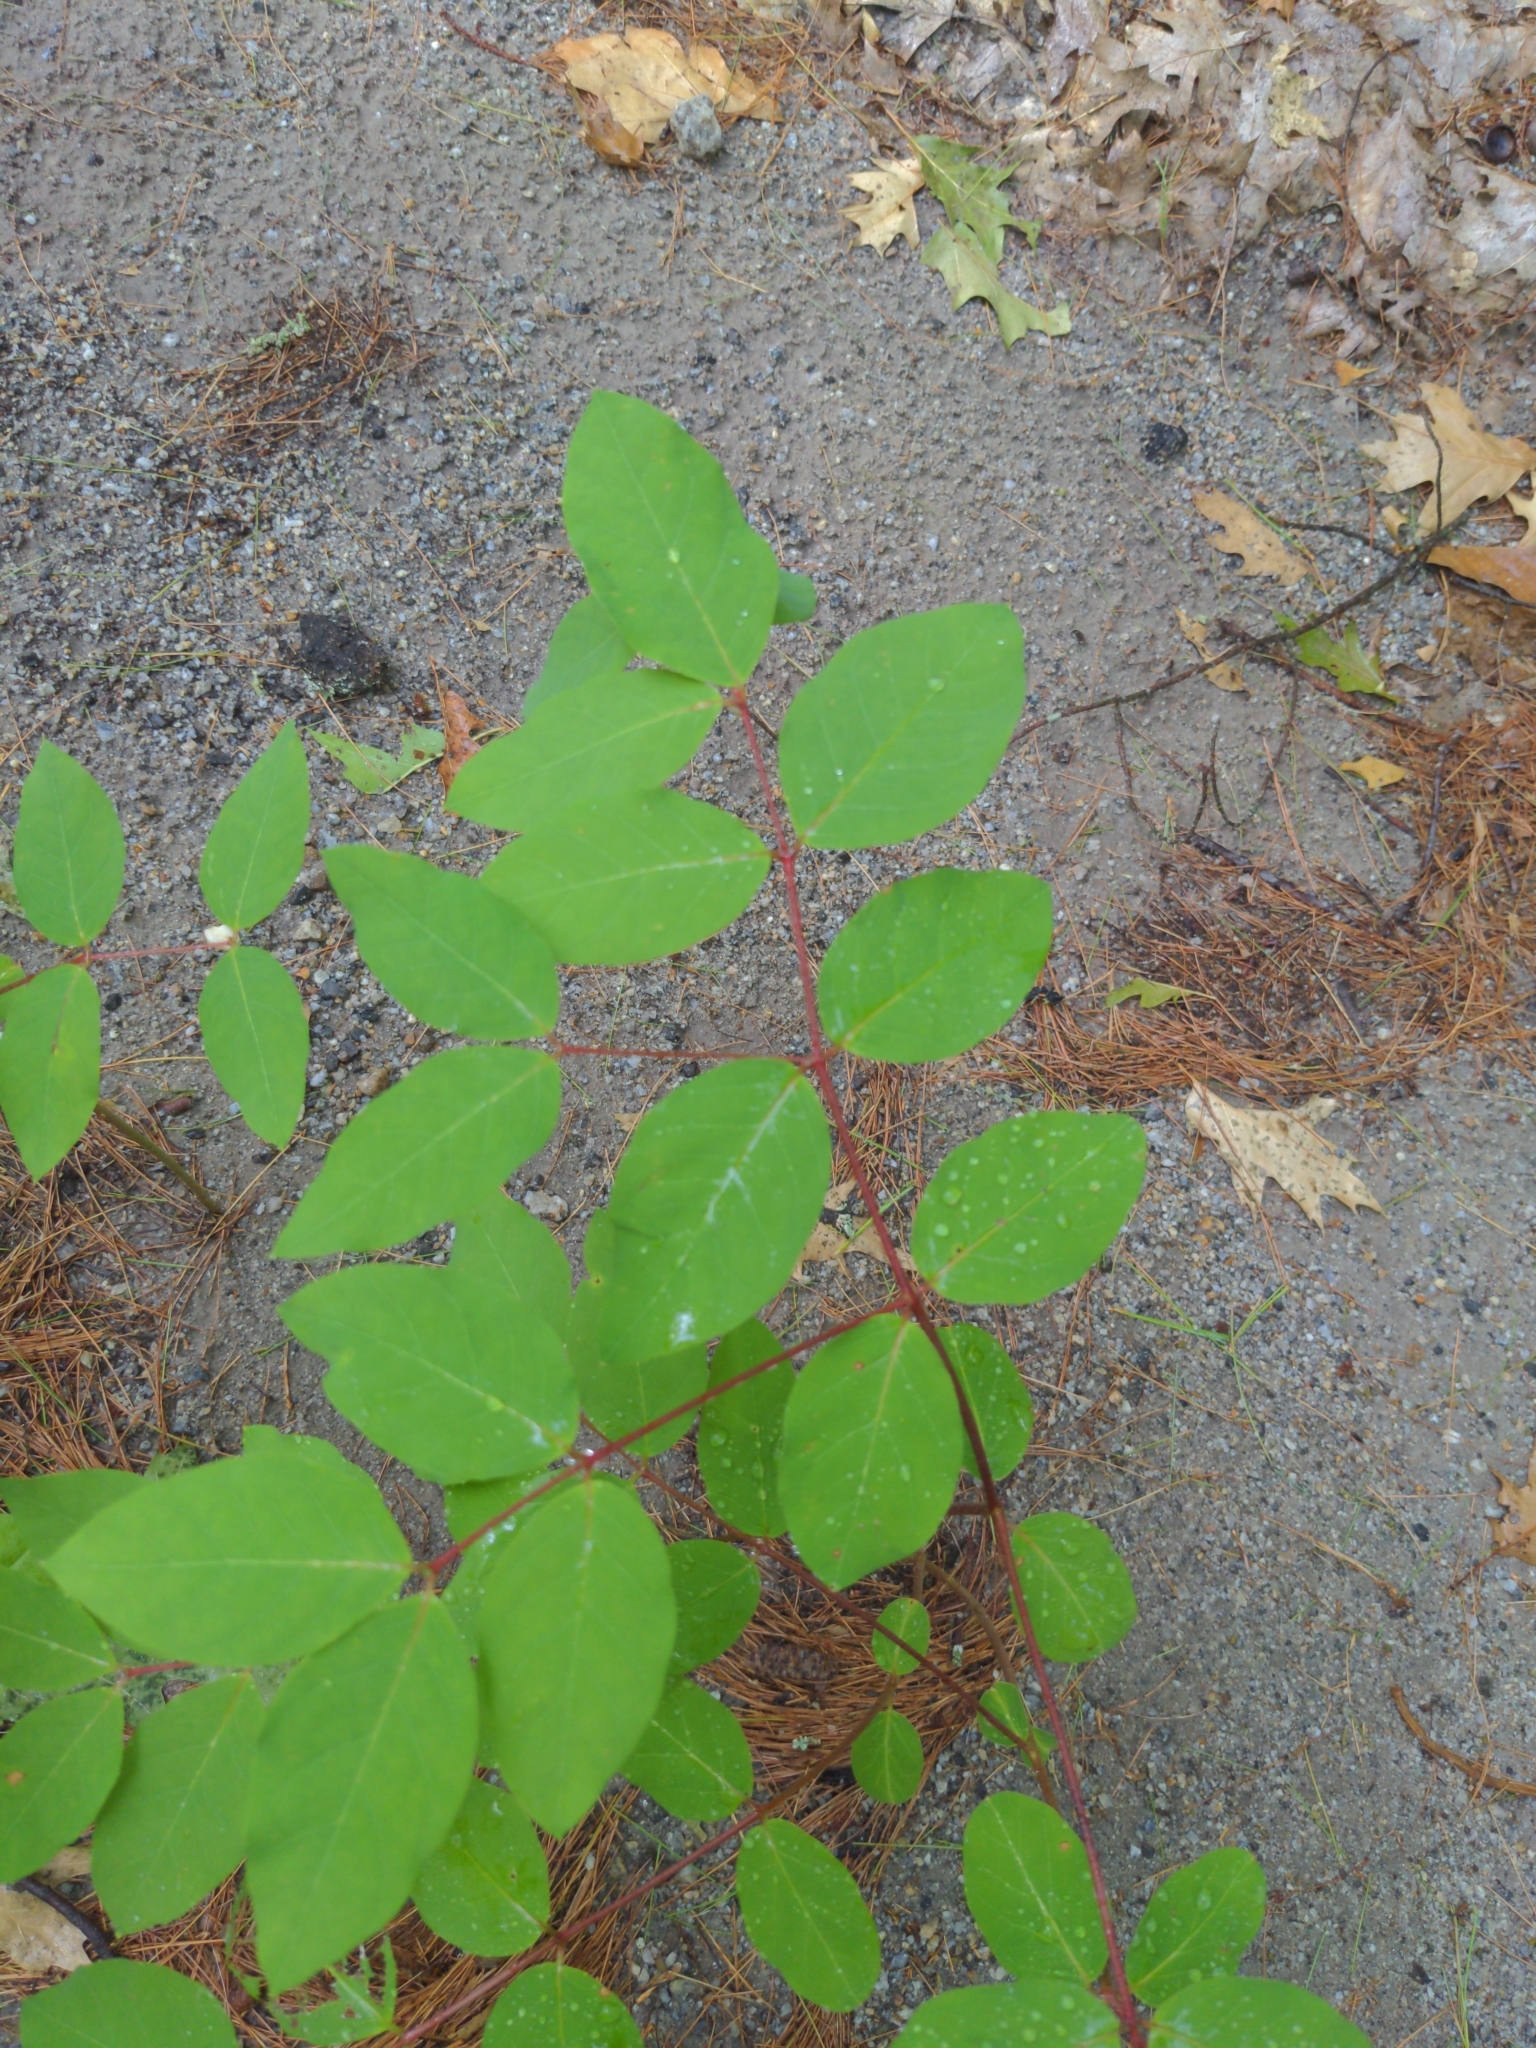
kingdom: Plantae
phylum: Tracheophyta
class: Magnoliopsida
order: Gentianales
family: Apocynaceae
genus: Apocynum
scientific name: Apocynum androsaemifolium
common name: Spreading dogbane
